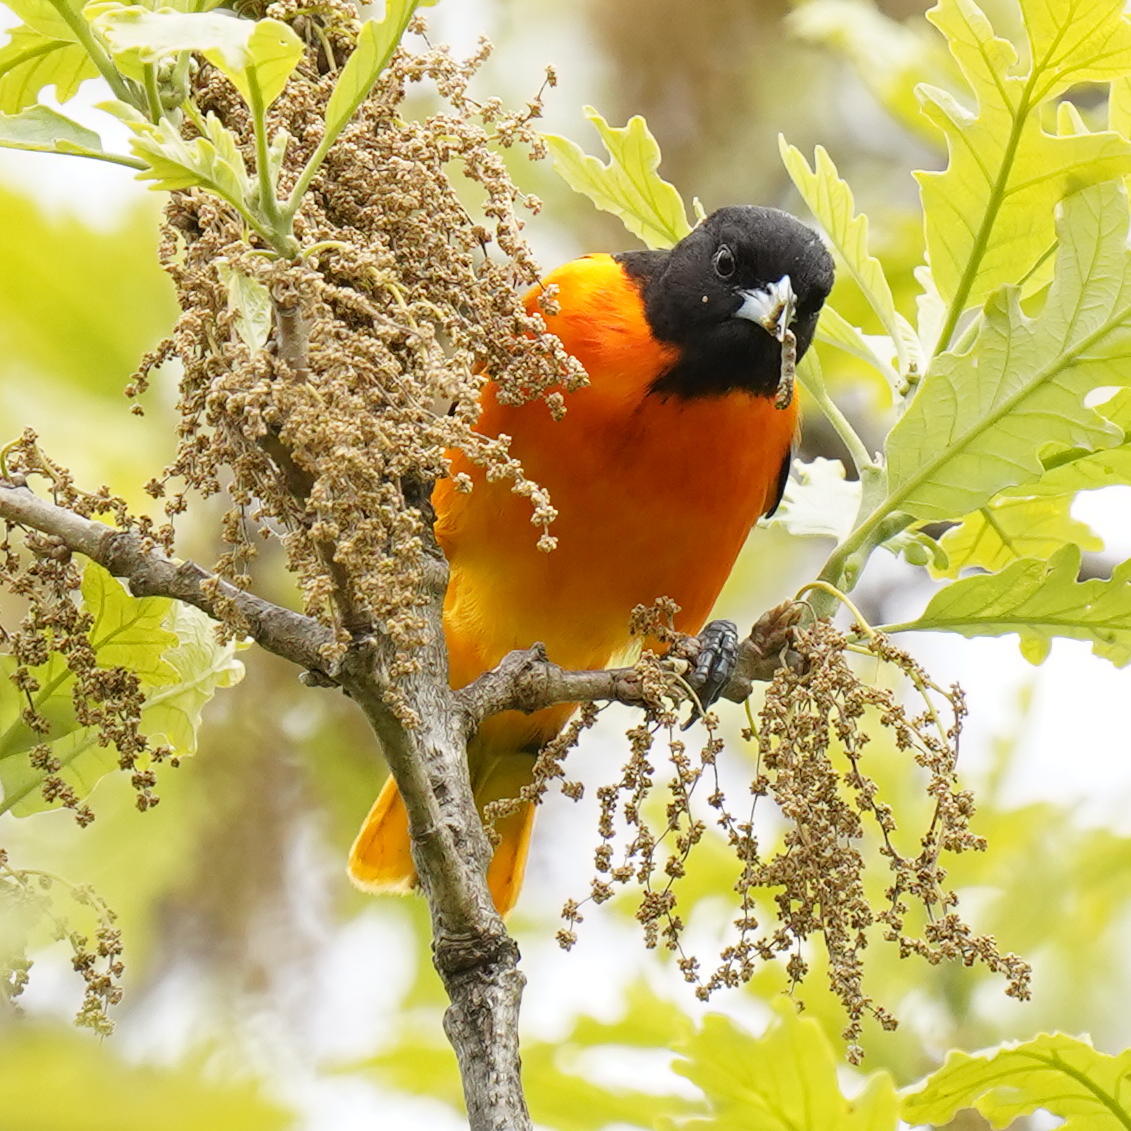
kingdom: Animalia
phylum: Chordata
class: Aves
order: Passeriformes
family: Icteridae
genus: Icterus
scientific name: Icterus galbula
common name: Baltimore oriole
